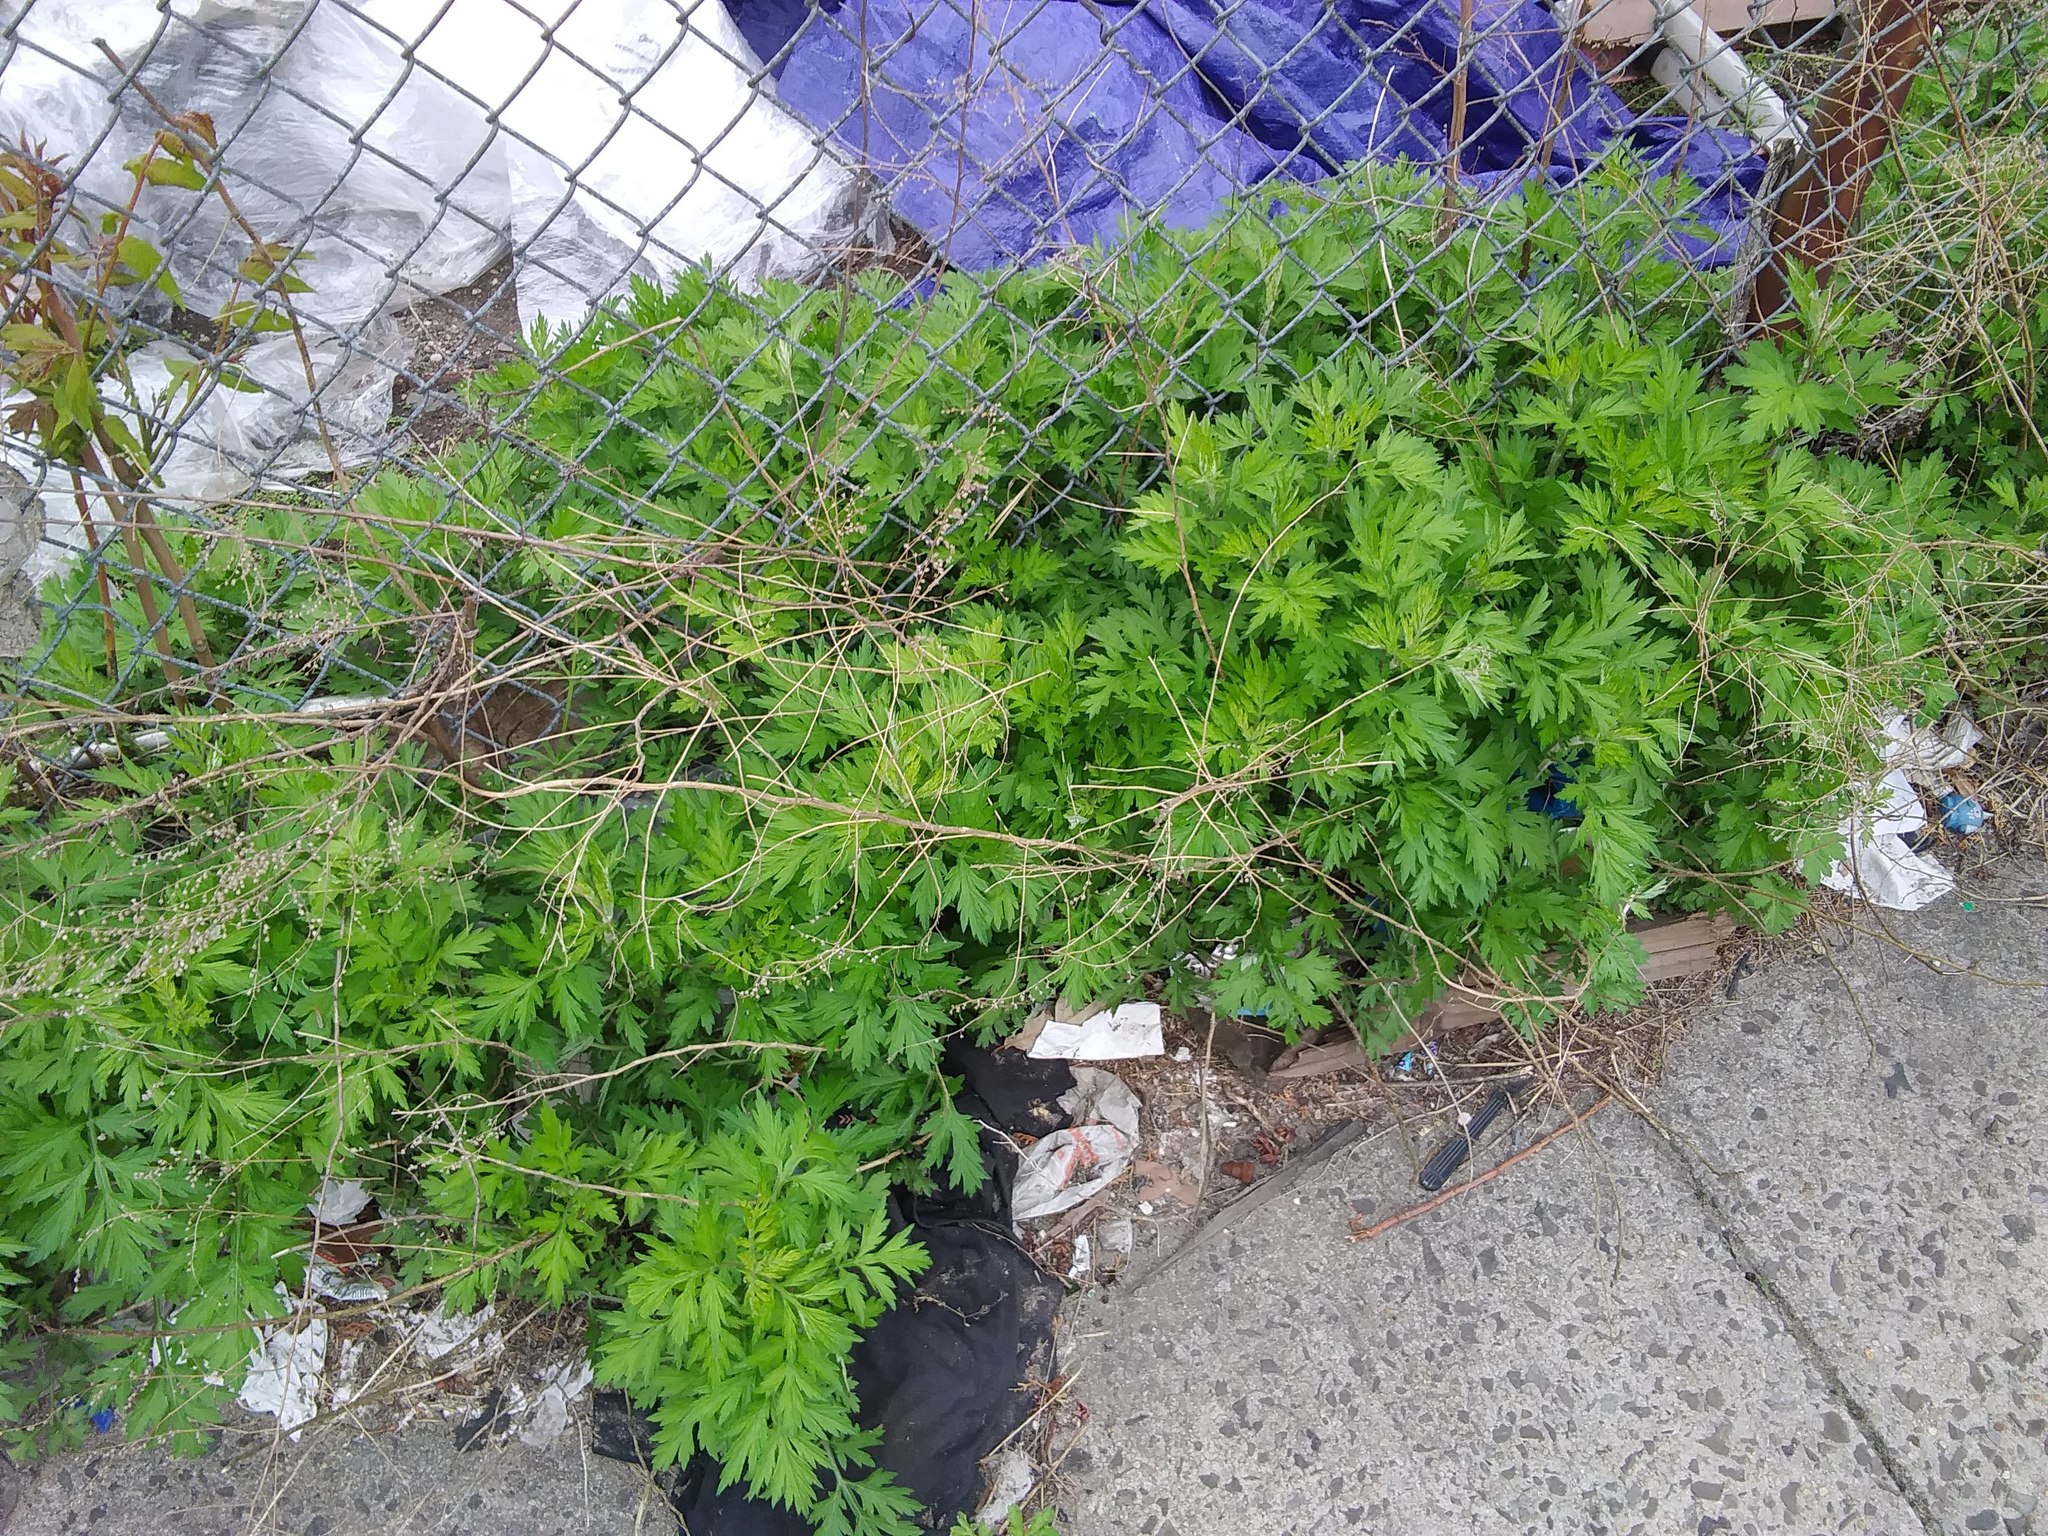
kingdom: Plantae
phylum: Tracheophyta
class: Magnoliopsida
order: Asterales
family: Asteraceae
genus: Artemisia
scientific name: Artemisia vulgaris
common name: Mugwort
